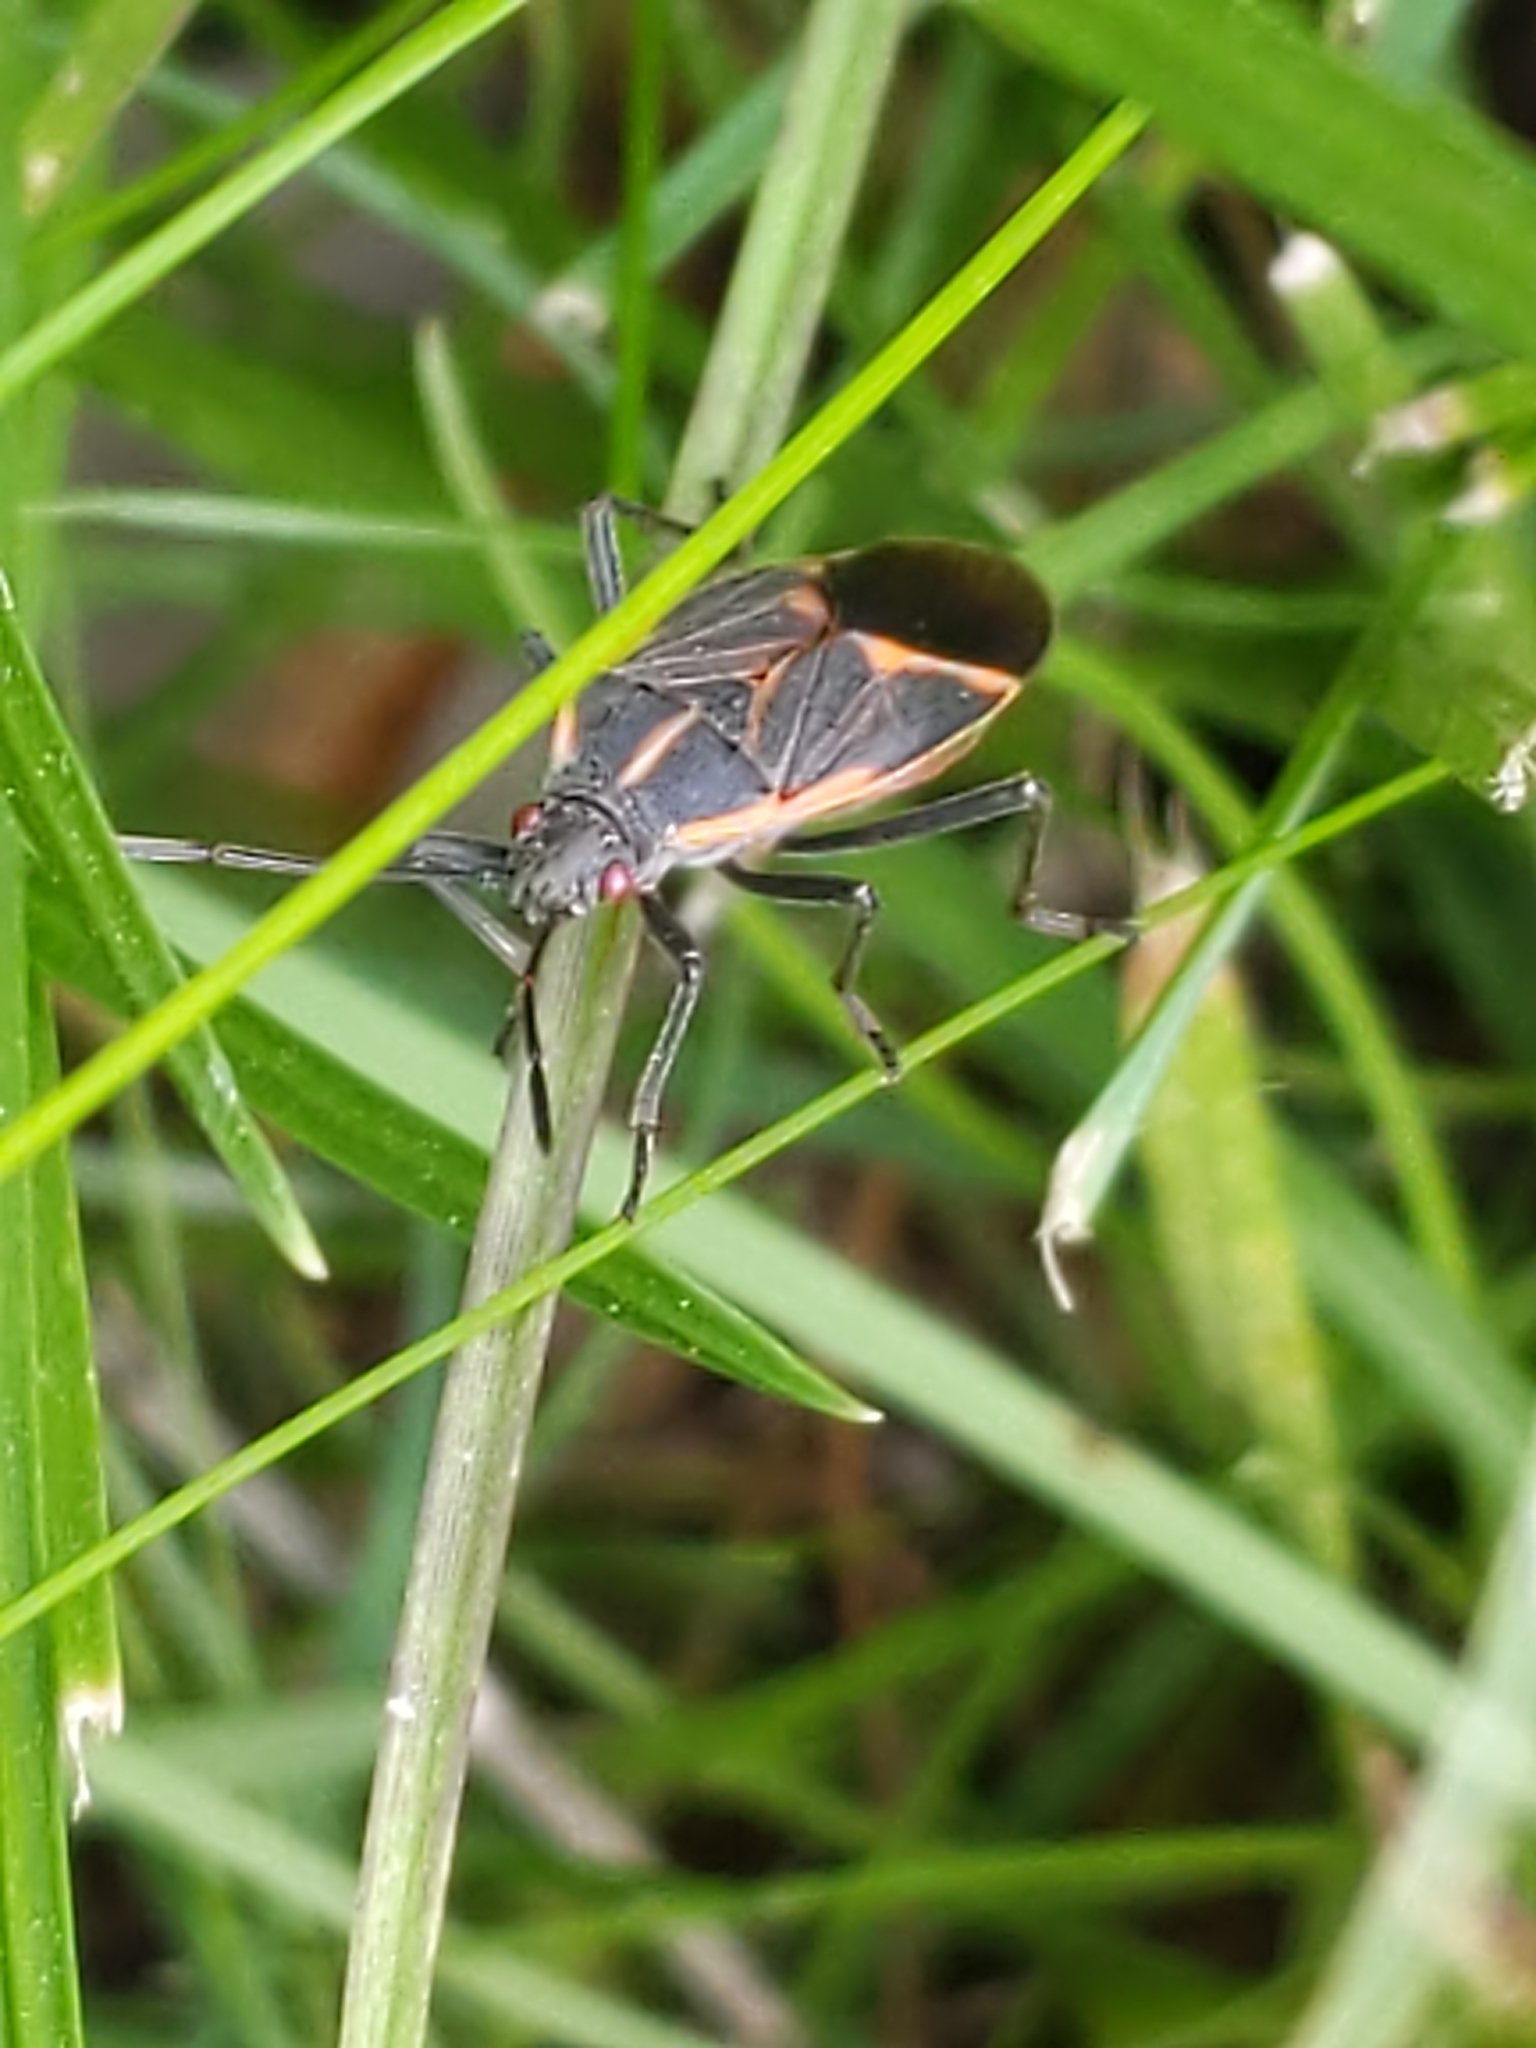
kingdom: Animalia
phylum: Arthropoda
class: Insecta
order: Hemiptera
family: Rhopalidae
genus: Boisea
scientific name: Boisea trivittata
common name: Boxelder bug
